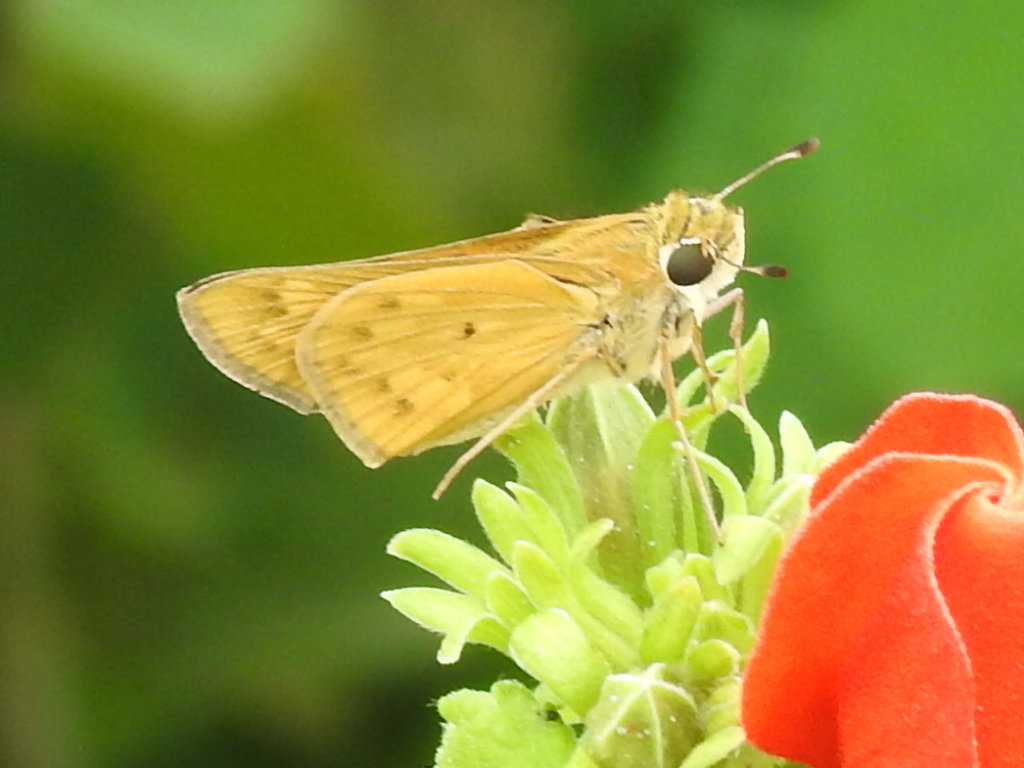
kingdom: Animalia
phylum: Arthropoda
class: Insecta
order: Lepidoptera
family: Hesperiidae
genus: Hylephila
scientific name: Hylephila phyleus
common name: Fiery skipper
